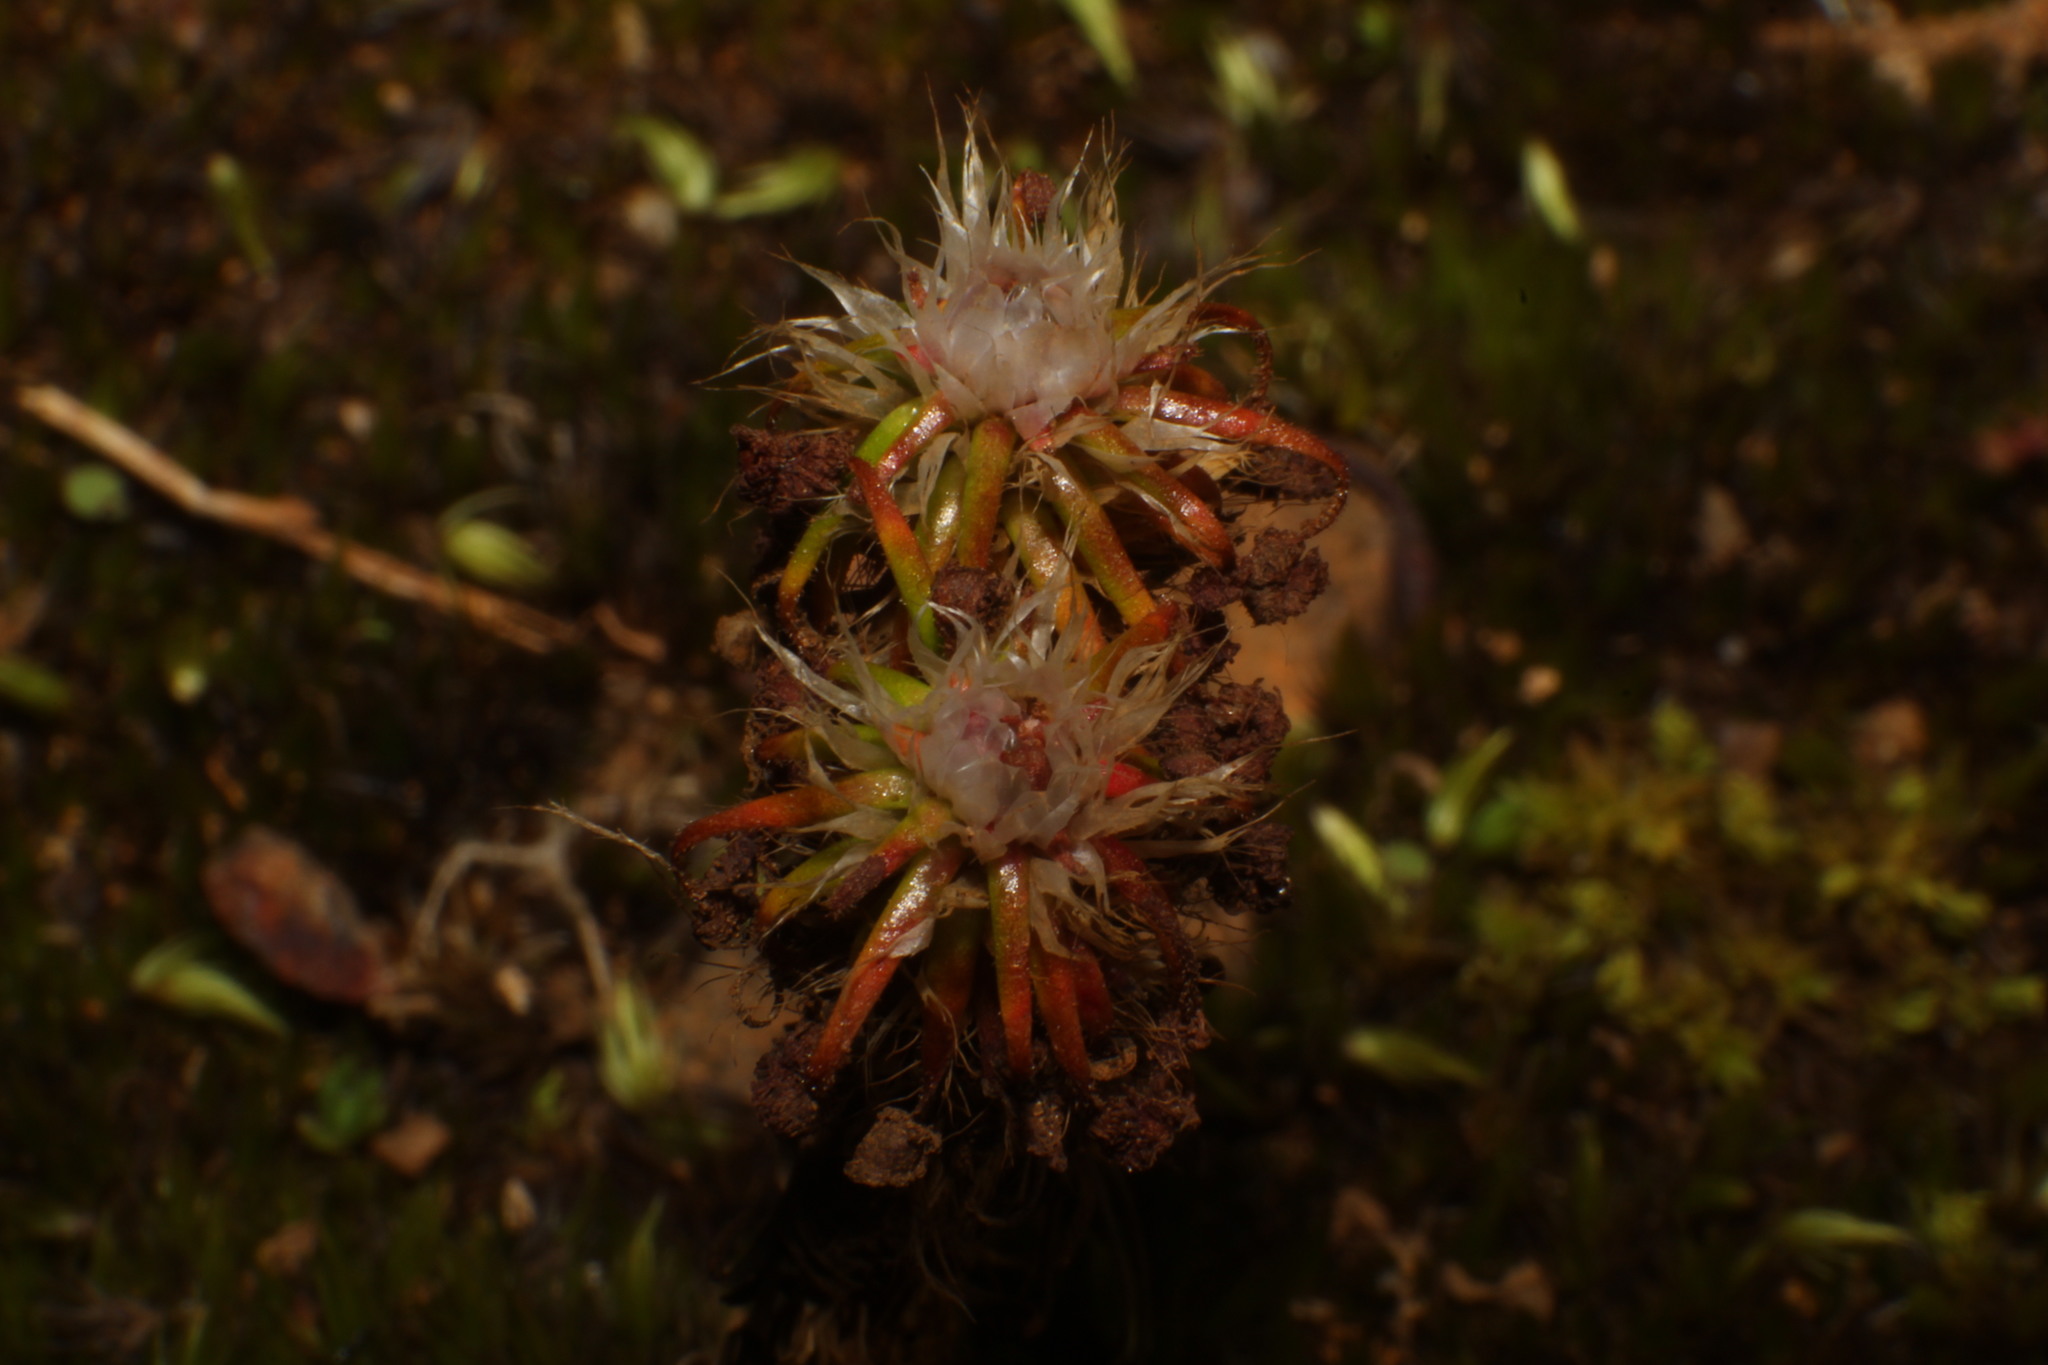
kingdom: Plantae
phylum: Tracheophyta
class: Magnoliopsida
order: Caryophyllales
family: Droseraceae
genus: Drosera
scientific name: Drosera verrucata
